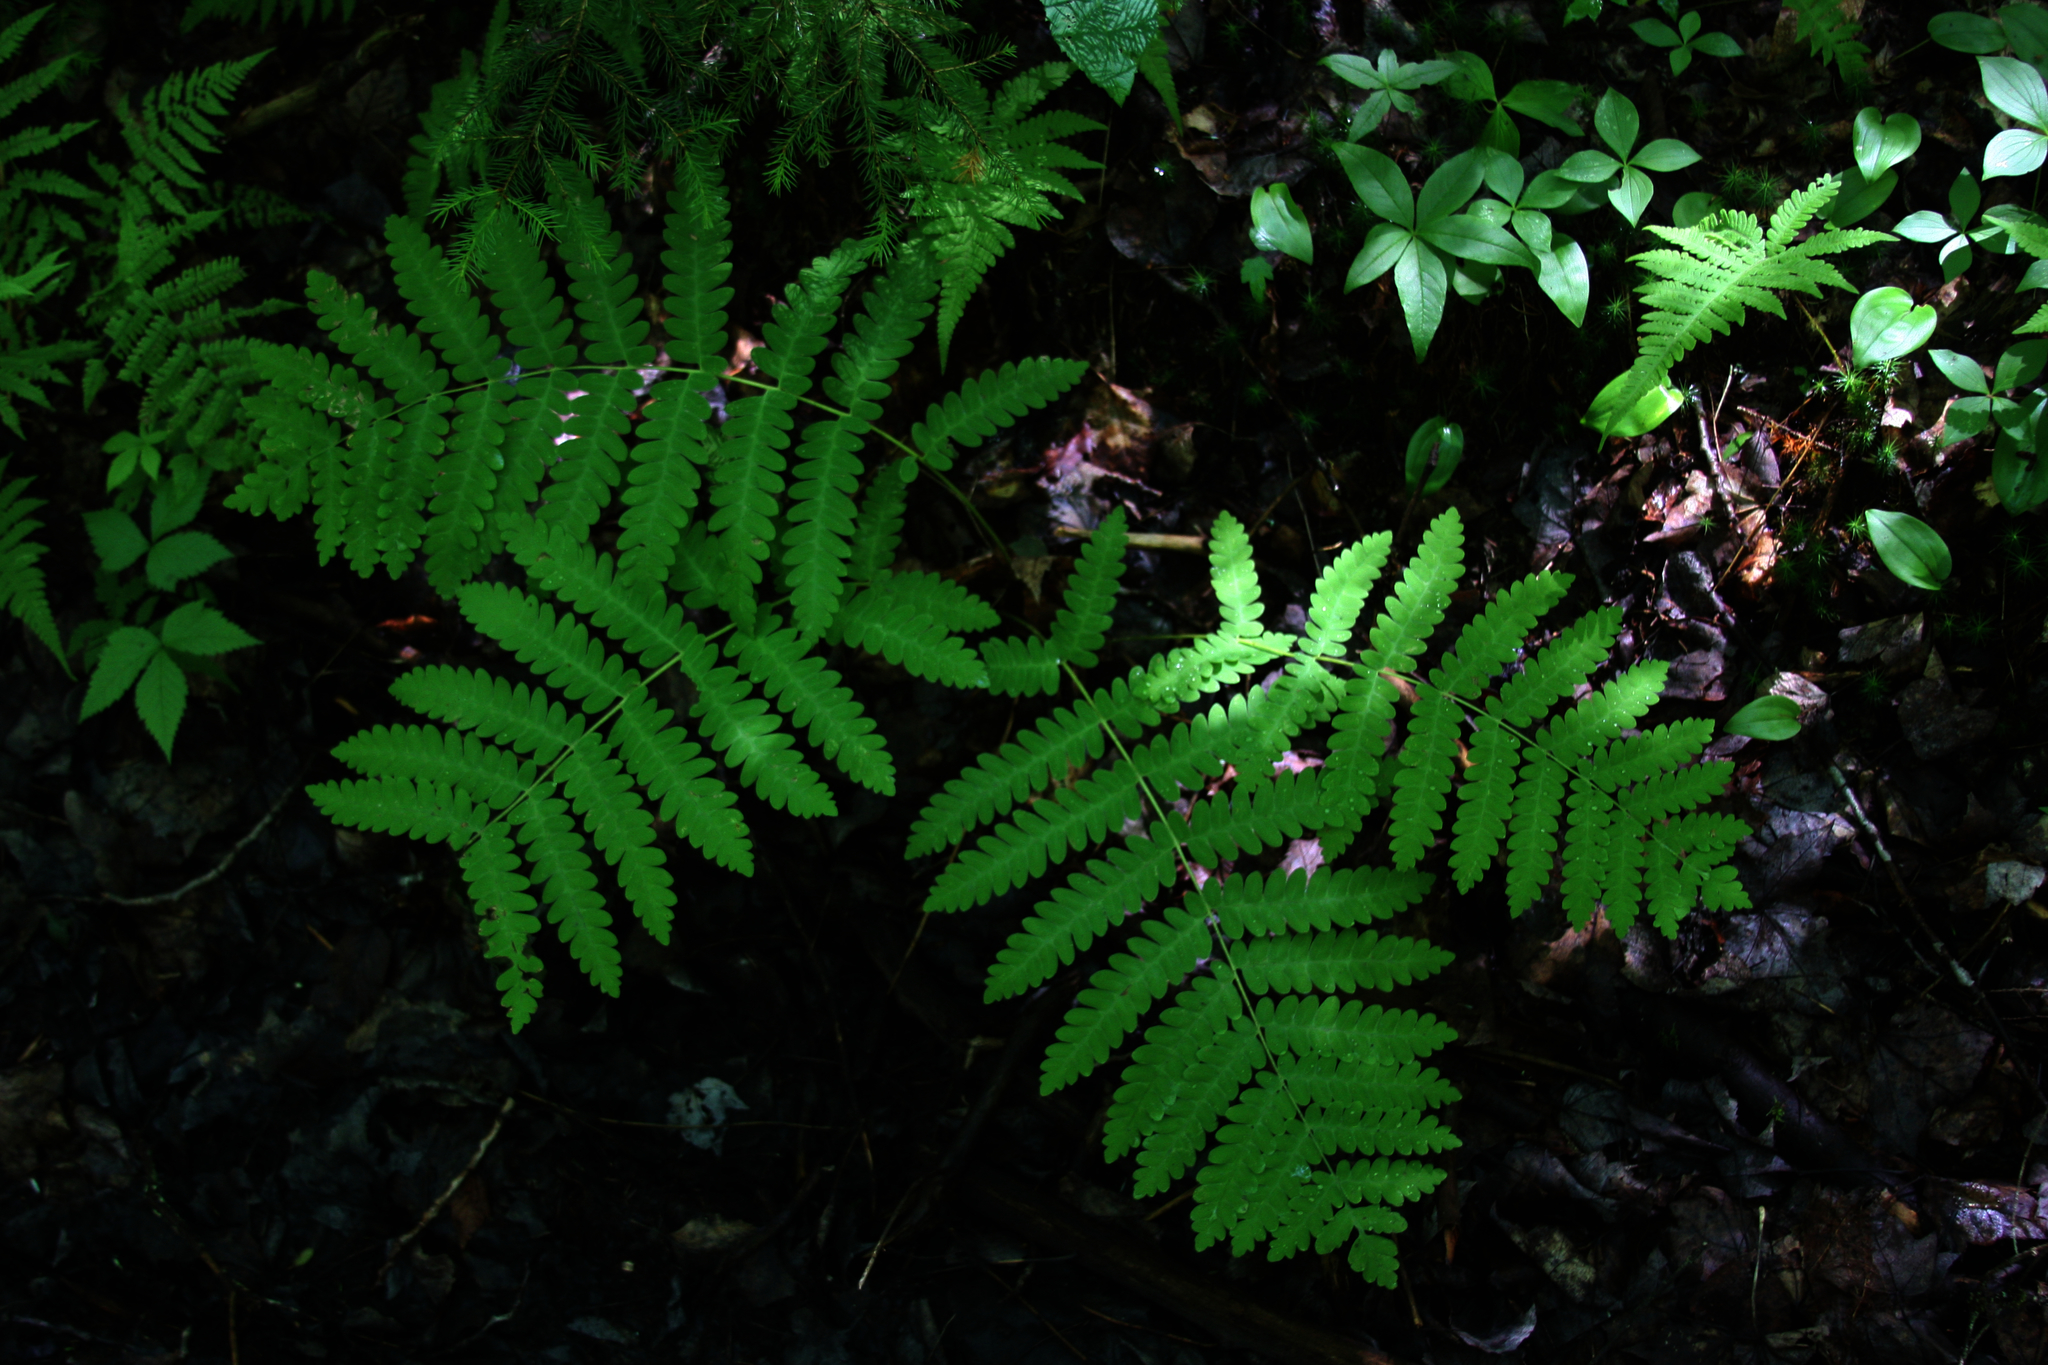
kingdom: Plantae
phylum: Tracheophyta
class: Magnoliopsida
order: Cornales
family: Cornaceae
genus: Cornus
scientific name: Cornus canadensis
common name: Creeping dogwood
